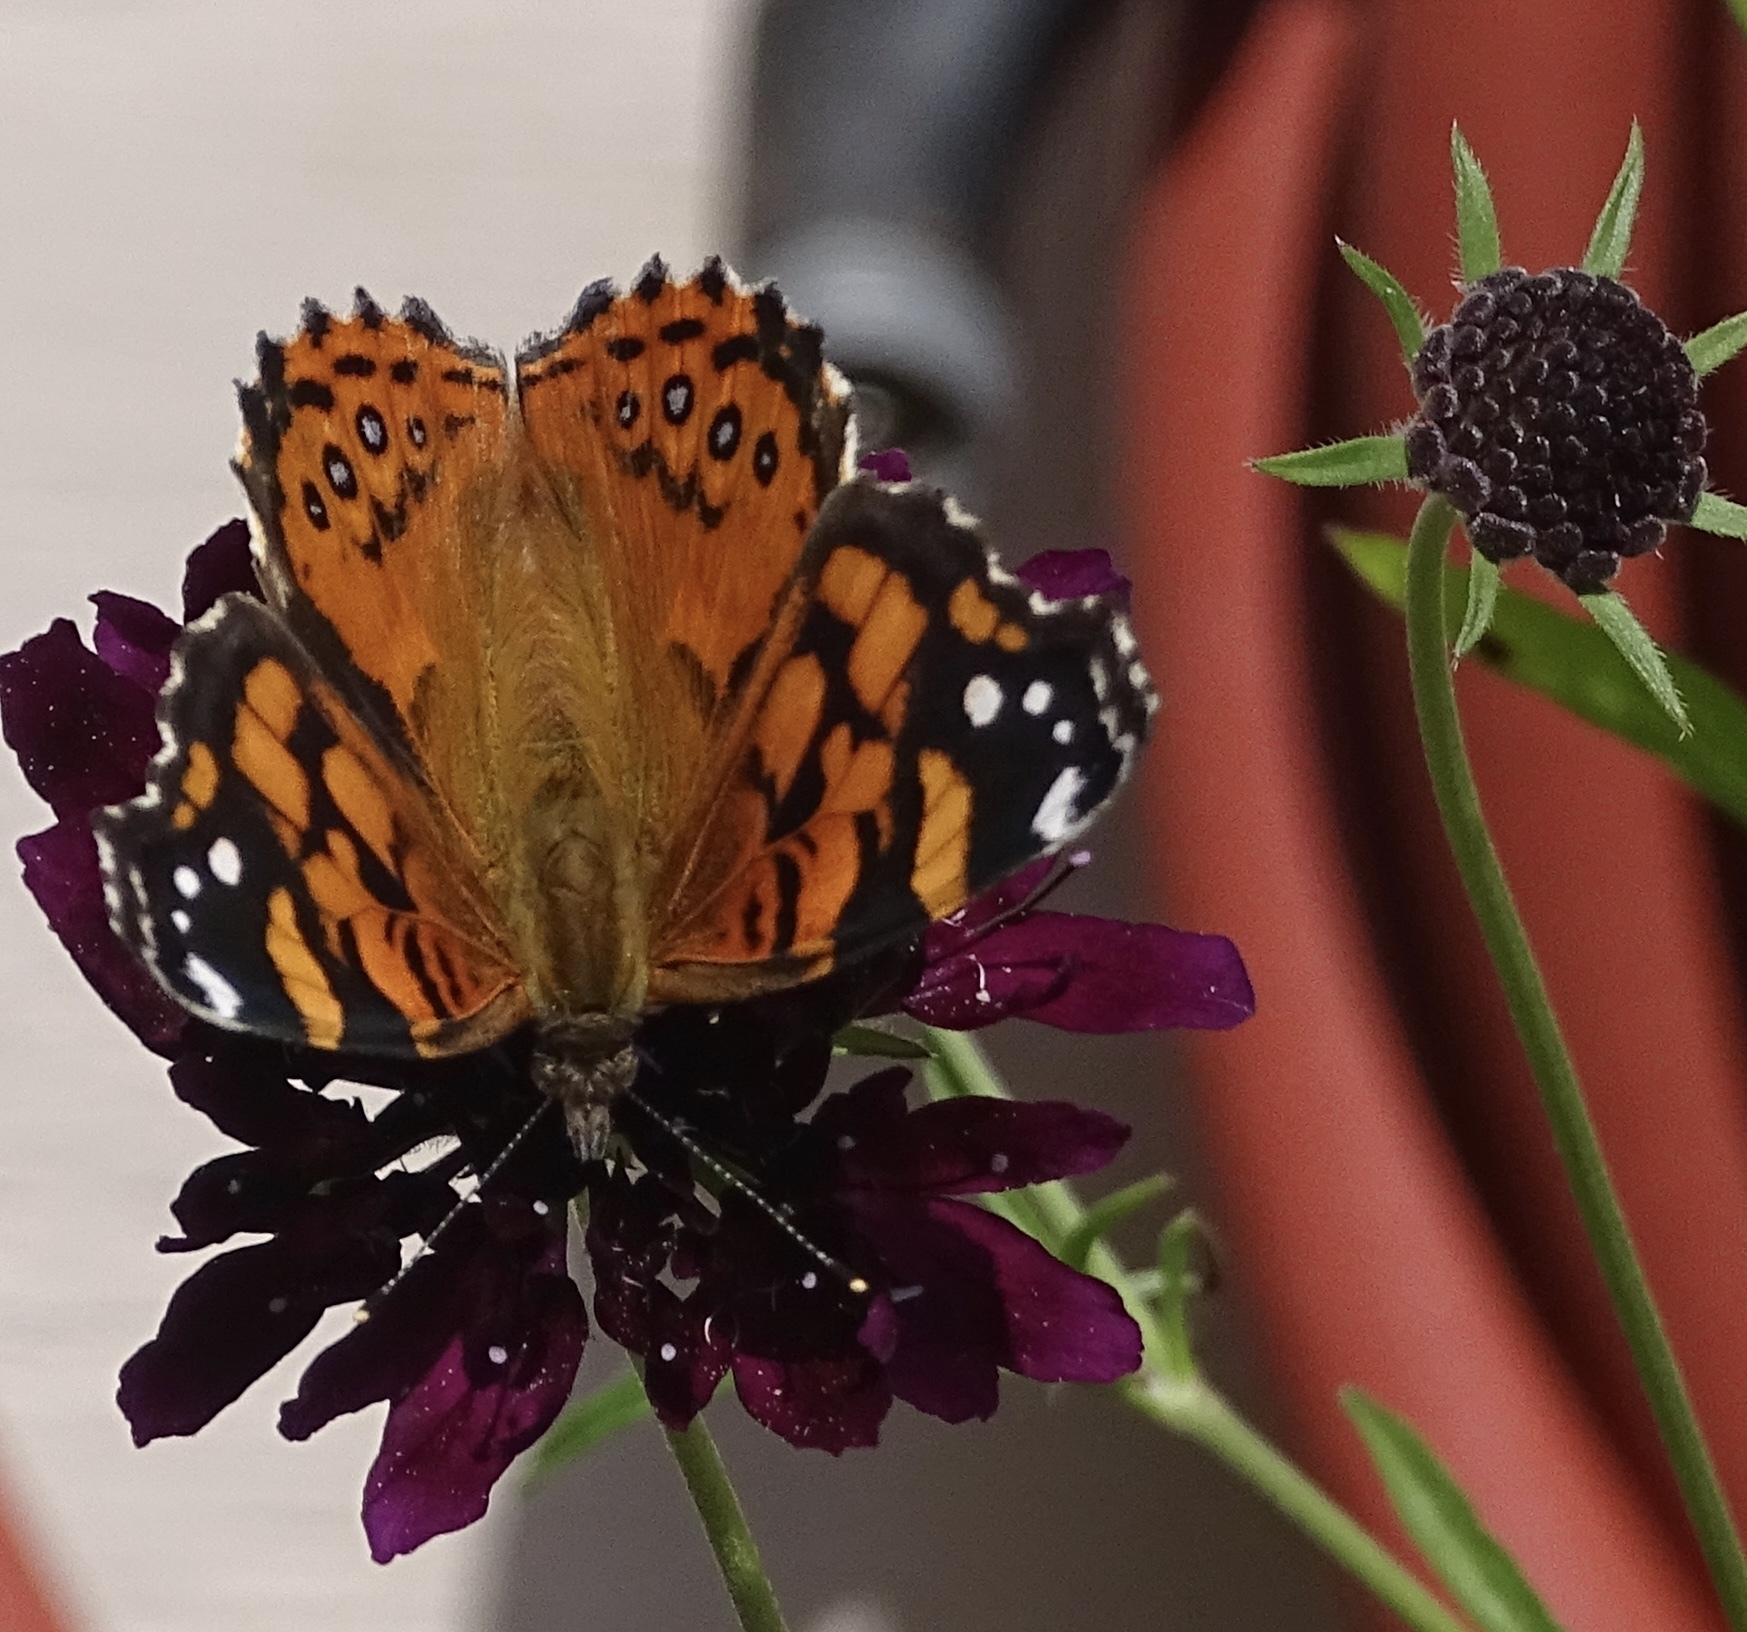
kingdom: Animalia
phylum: Arthropoda
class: Insecta
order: Lepidoptera
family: Nymphalidae
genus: Vanessa
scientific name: Vanessa annabella
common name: West coast lady
